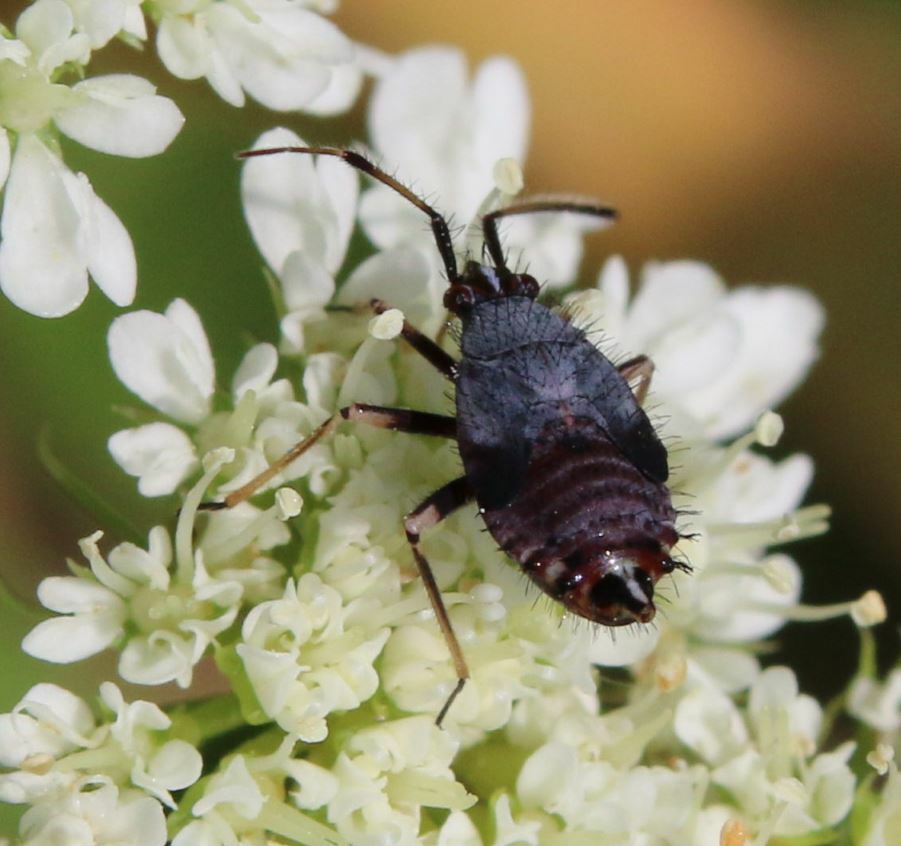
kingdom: Animalia
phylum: Arthropoda
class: Insecta
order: Hemiptera
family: Miridae
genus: Deraeocoris
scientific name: Deraeocoris ruber
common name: Plant bug
